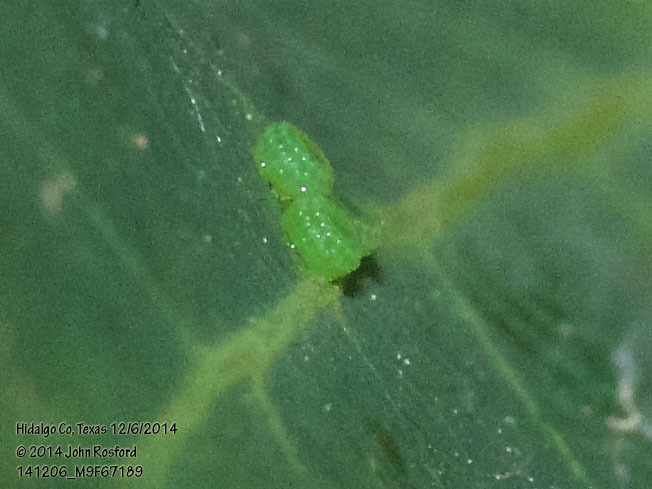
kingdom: Animalia
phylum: Arthropoda
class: Insecta
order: Lepidoptera
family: Lycaenidae
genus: Melanis
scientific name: Melanis pixe
